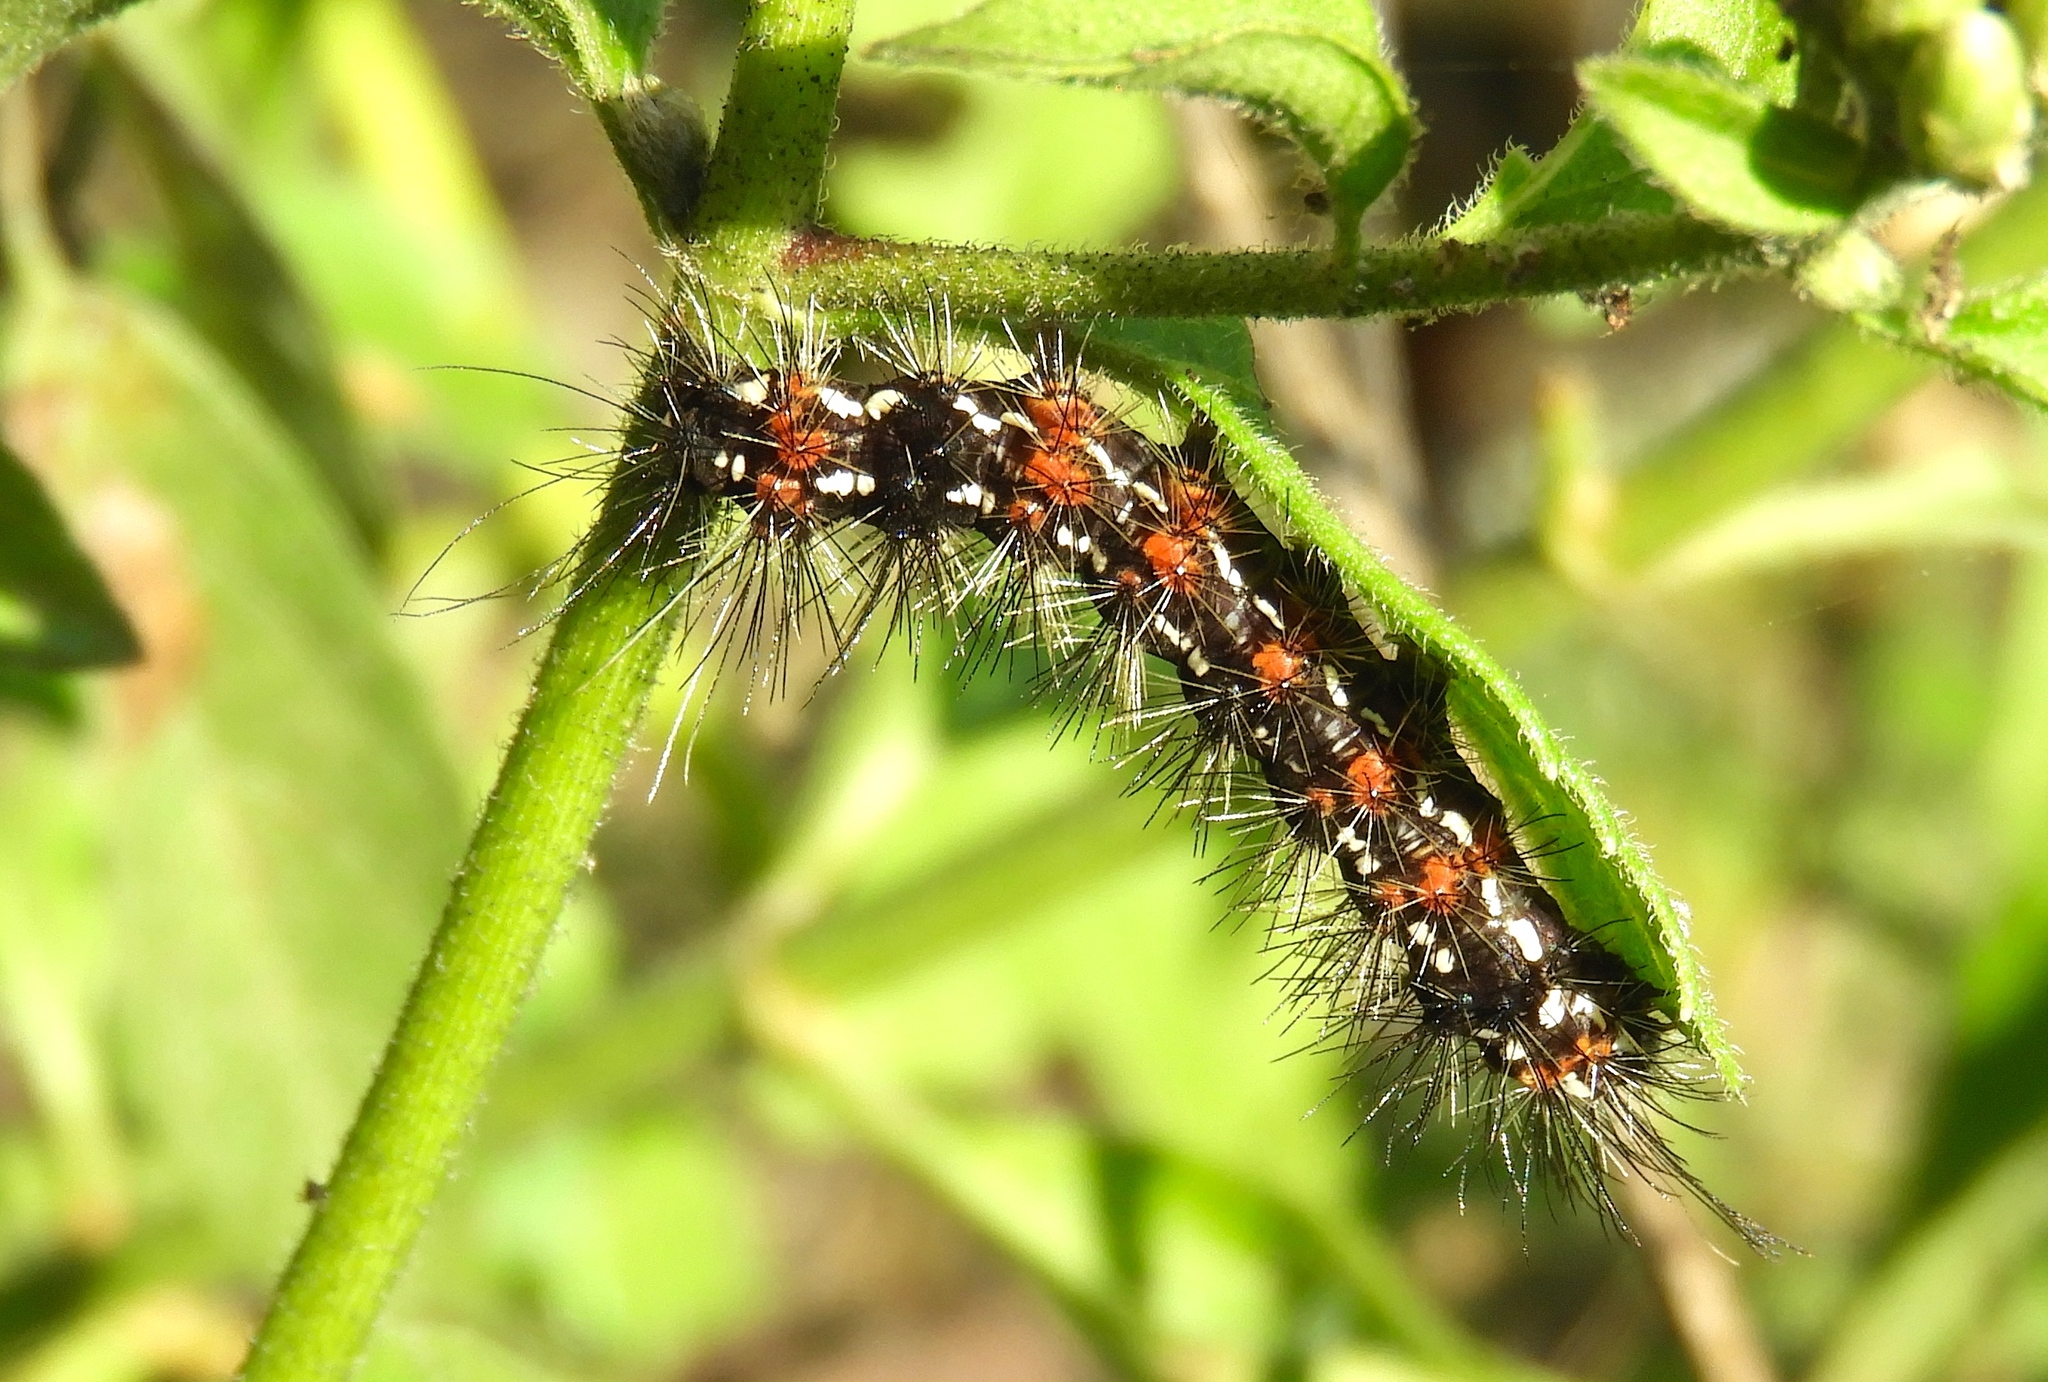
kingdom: Animalia
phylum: Arthropoda
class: Insecta
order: Lepidoptera
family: Erebidae
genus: Pareuchaetes
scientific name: Pareuchaetes
